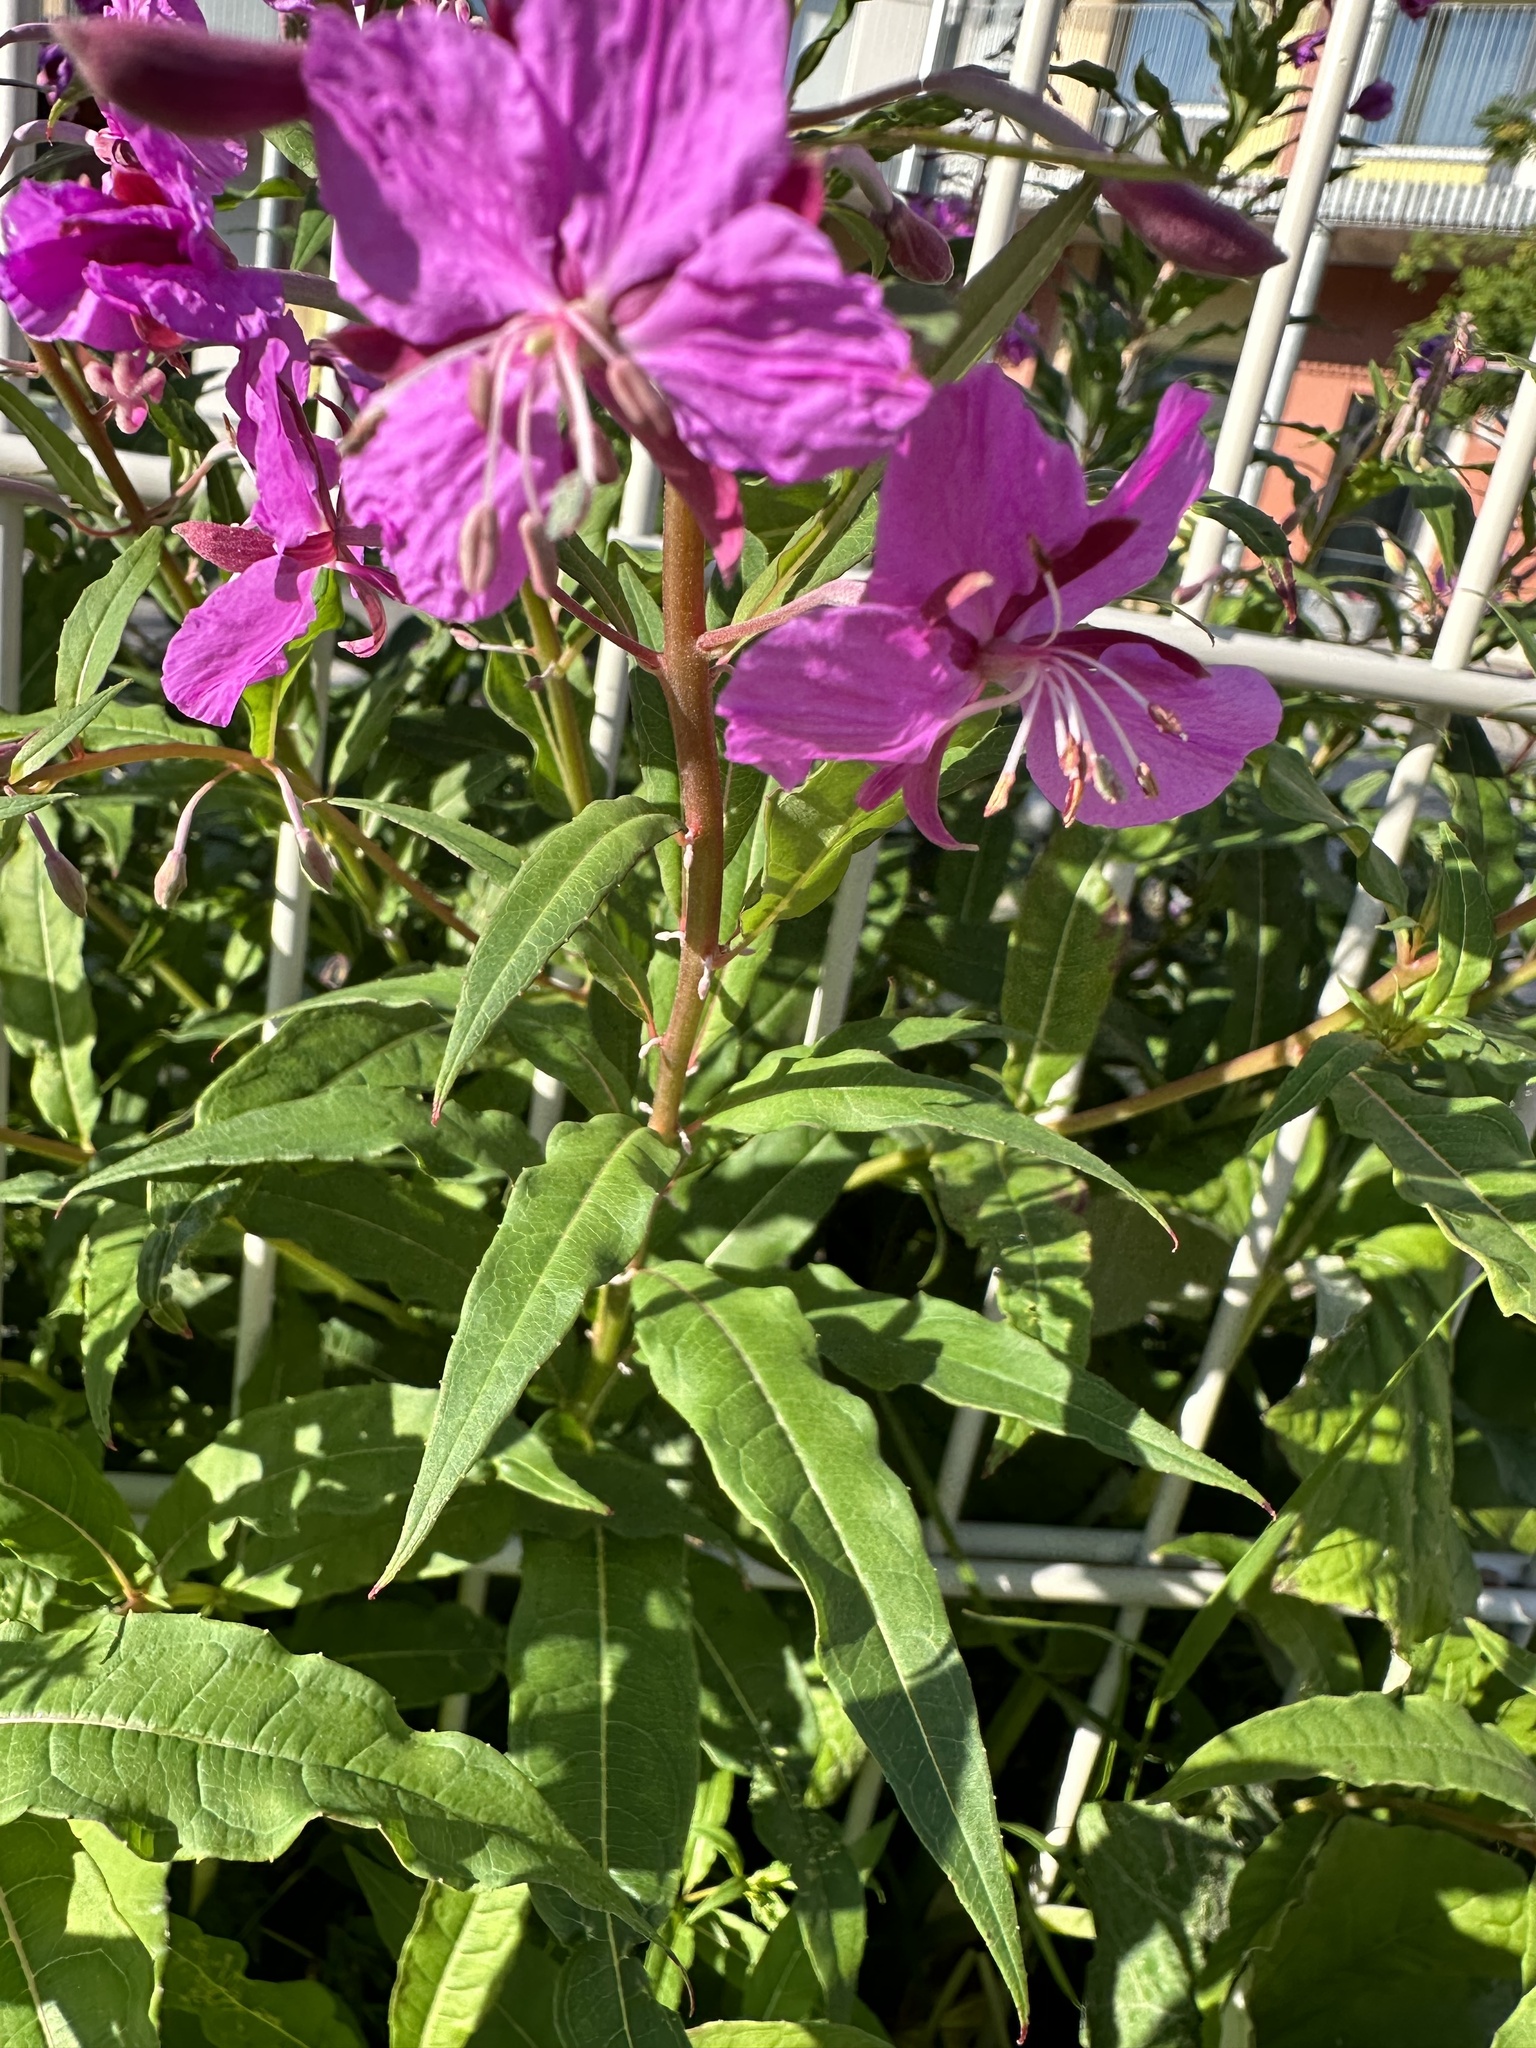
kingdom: Plantae
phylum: Tracheophyta
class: Magnoliopsida
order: Myrtales
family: Onagraceae
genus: Chamaenerion
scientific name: Chamaenerion angustifolium
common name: Fireweed
